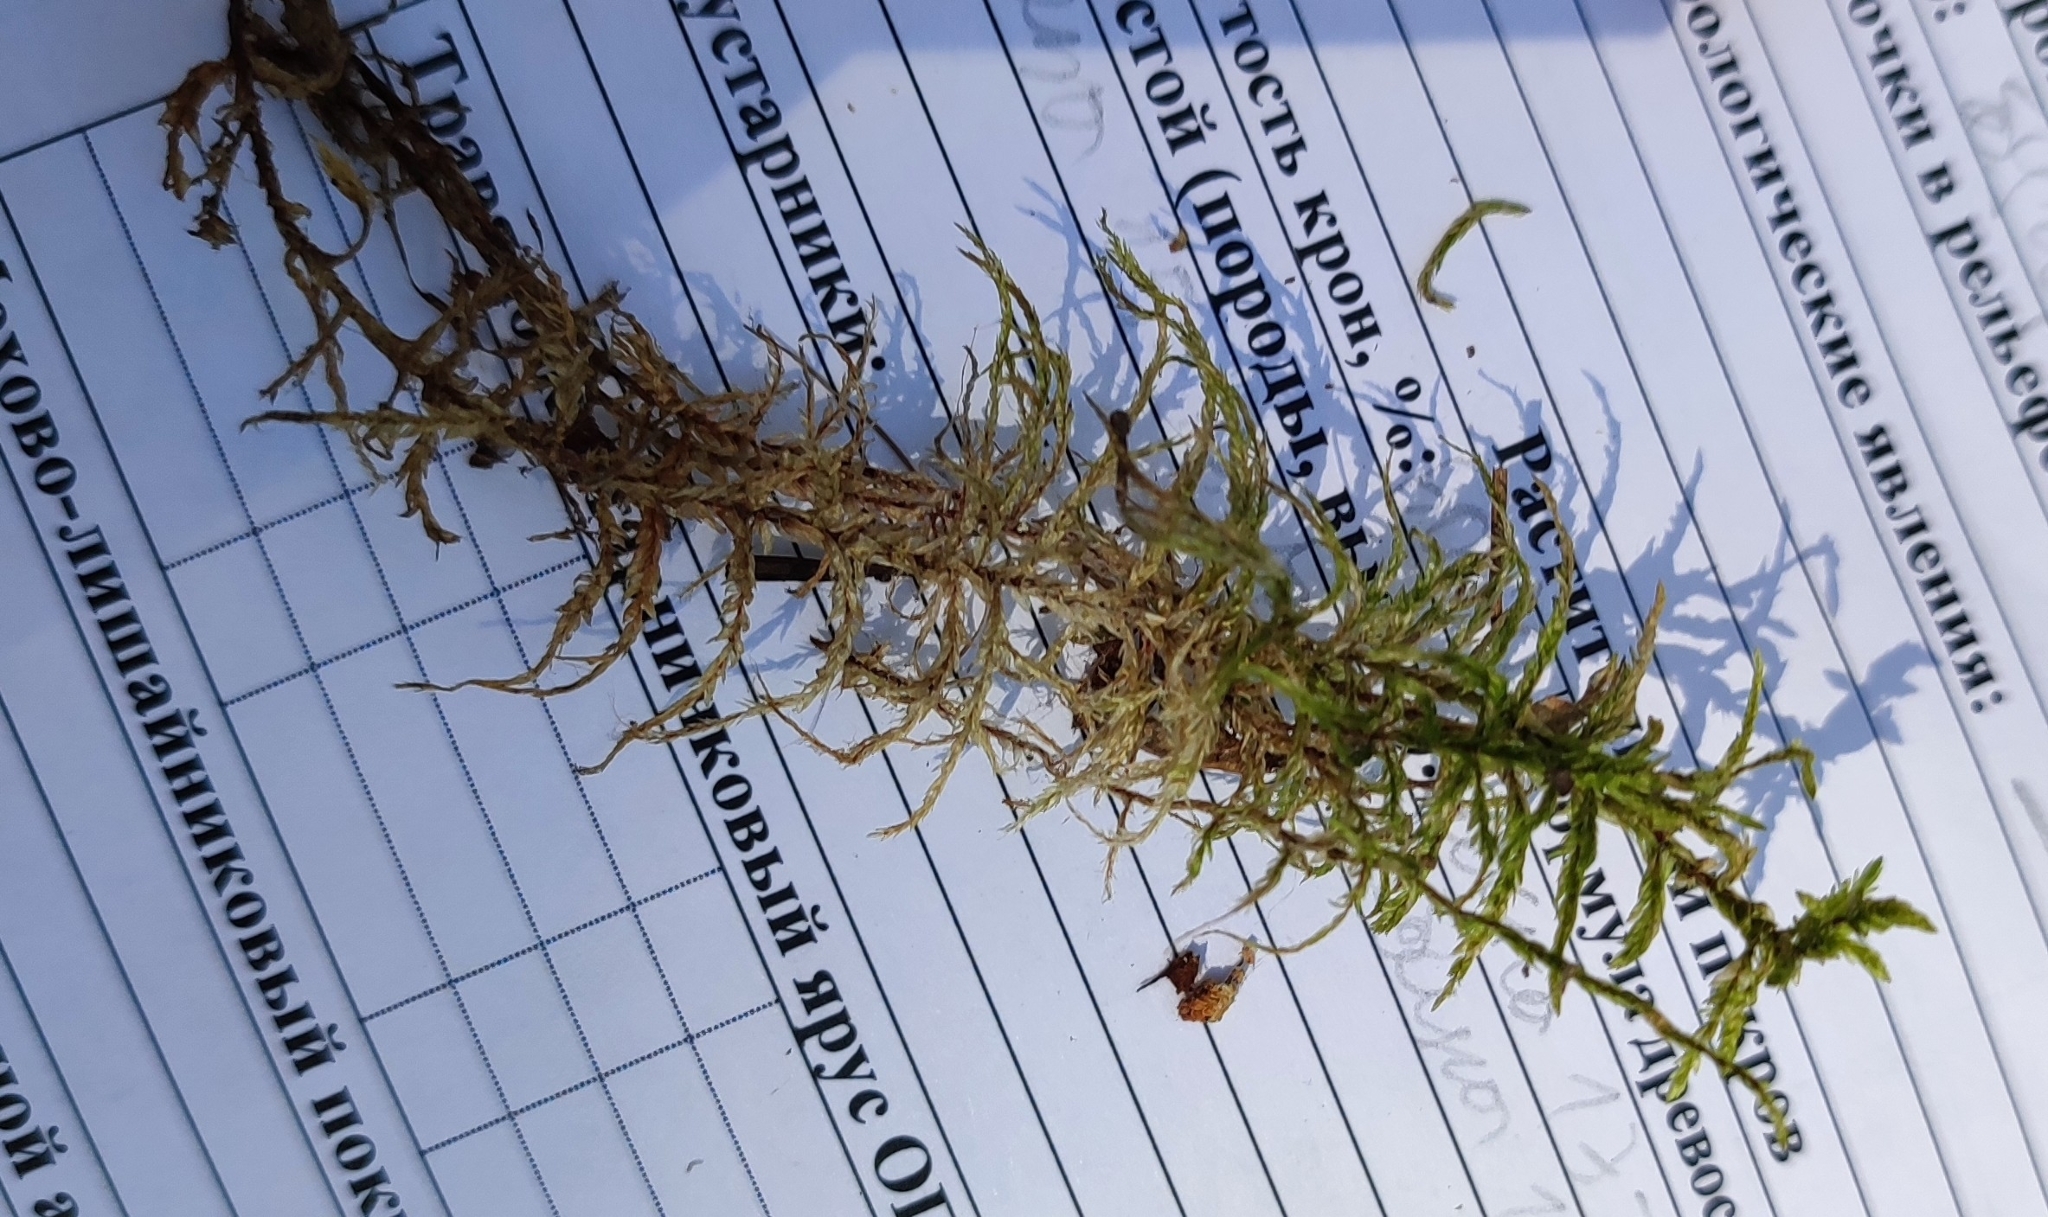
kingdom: Plantae
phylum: Bryophyta
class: Bryopsida
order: Hypnales
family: Hylocomiaceae
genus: Pleurozium
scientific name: Pleurozium schreberi
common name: Red-stemmed feather moss
